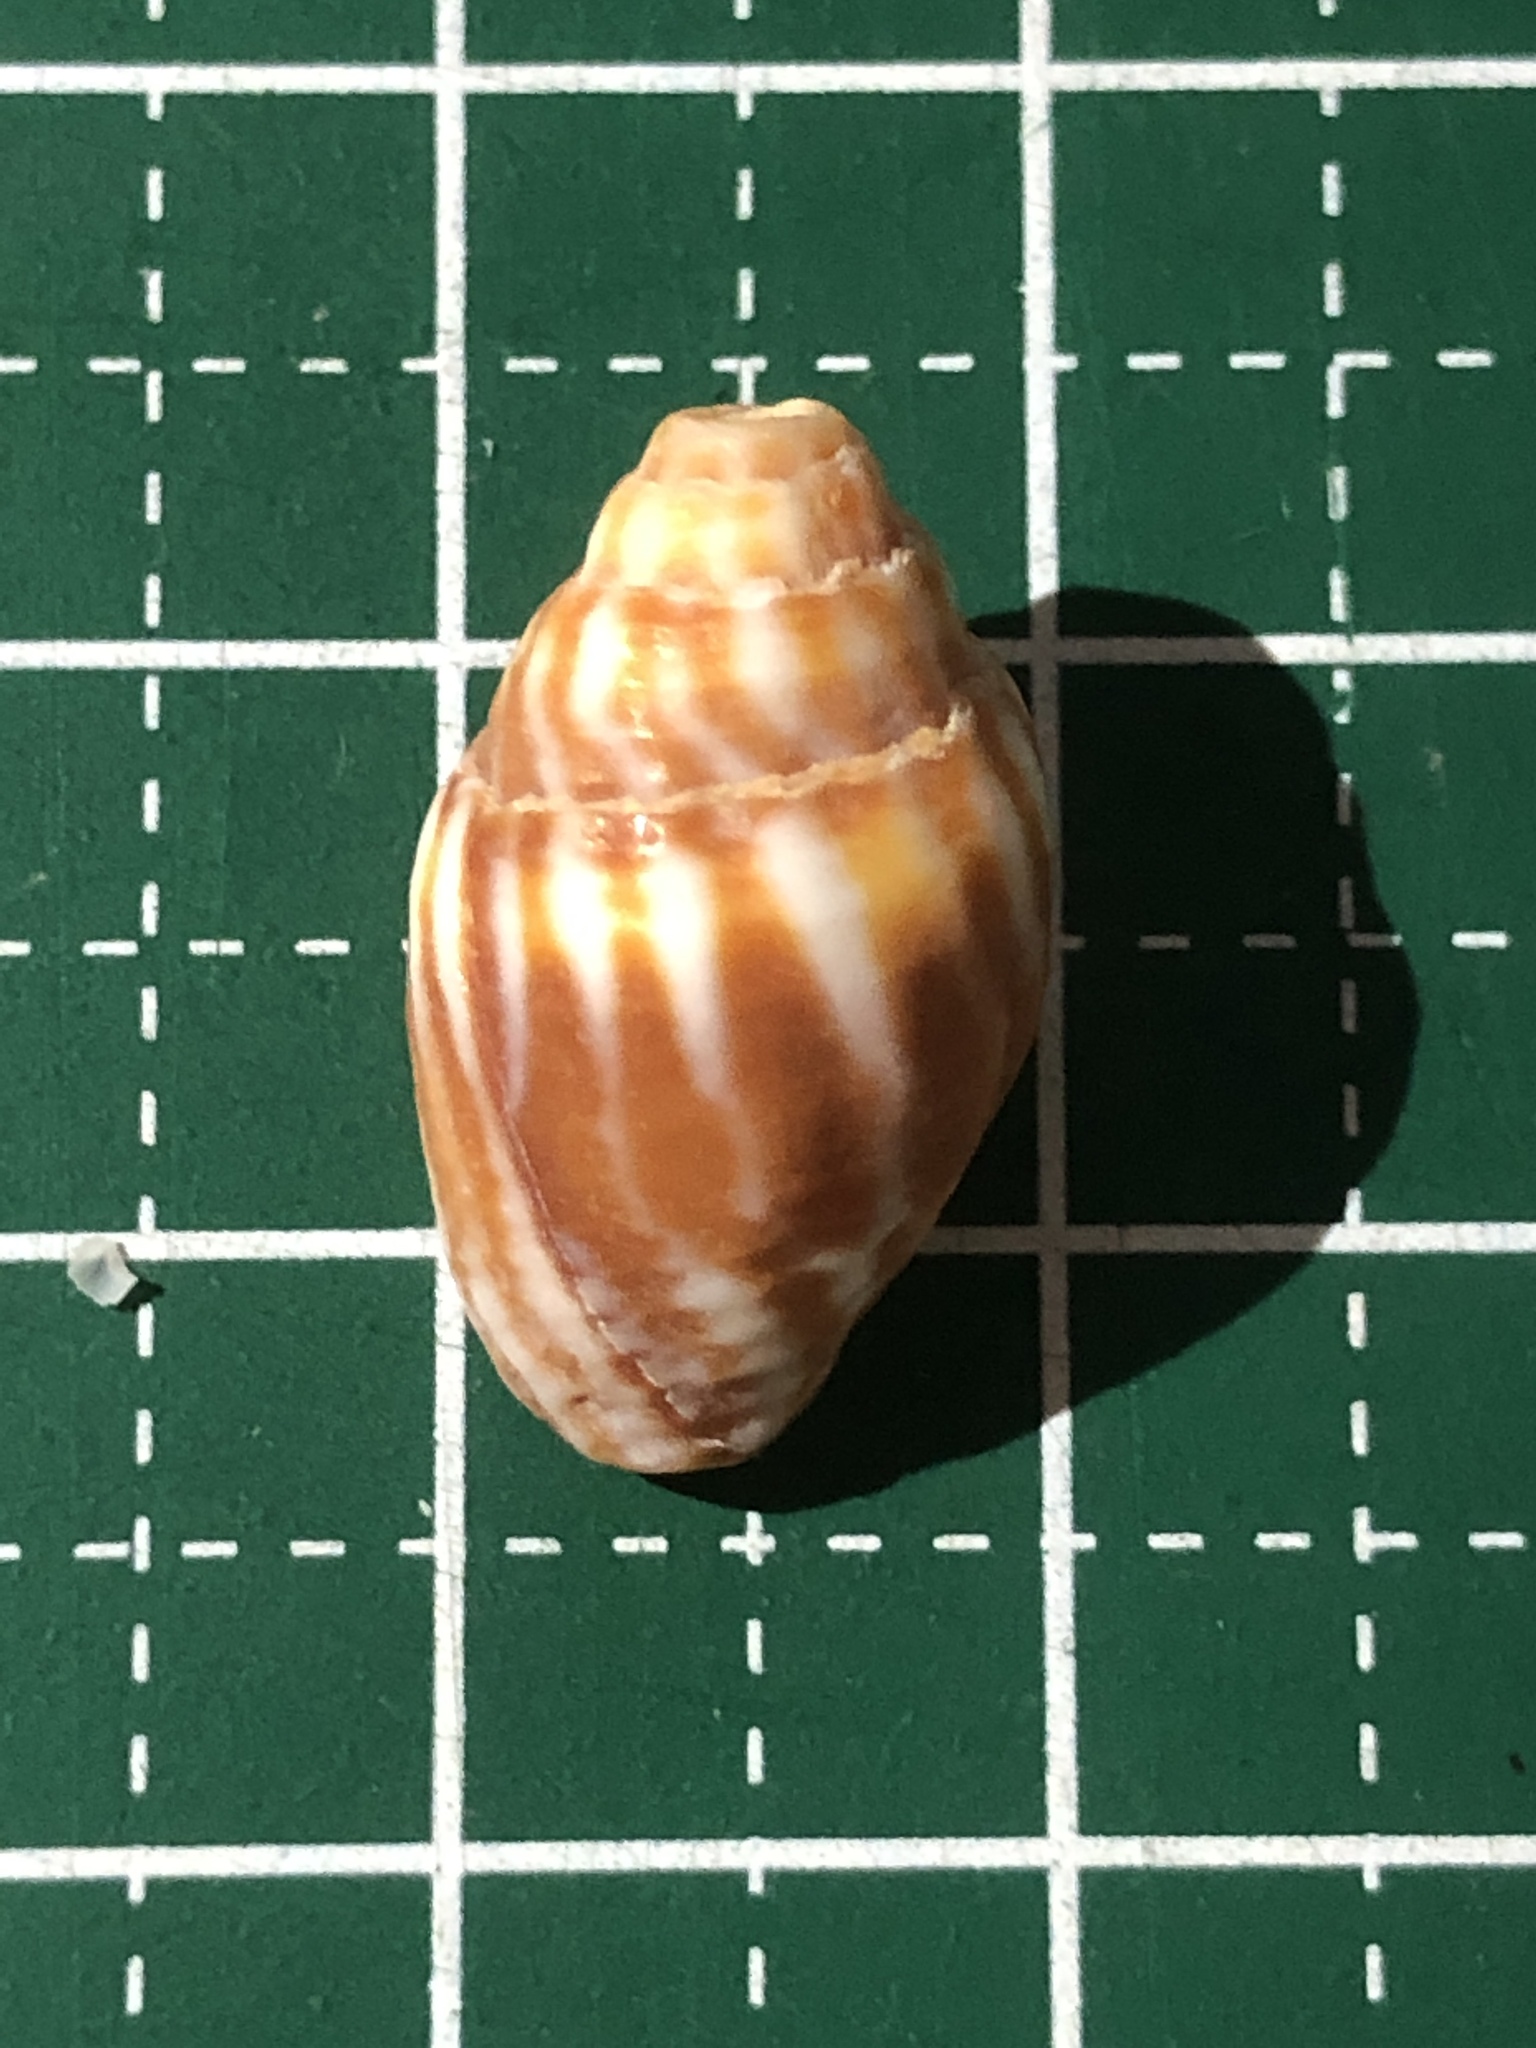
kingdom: Animalia
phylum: Mollusca
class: Gastropoda
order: Neogastropoda
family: Mitridae
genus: Strigatella
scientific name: Strigatella paupercula
